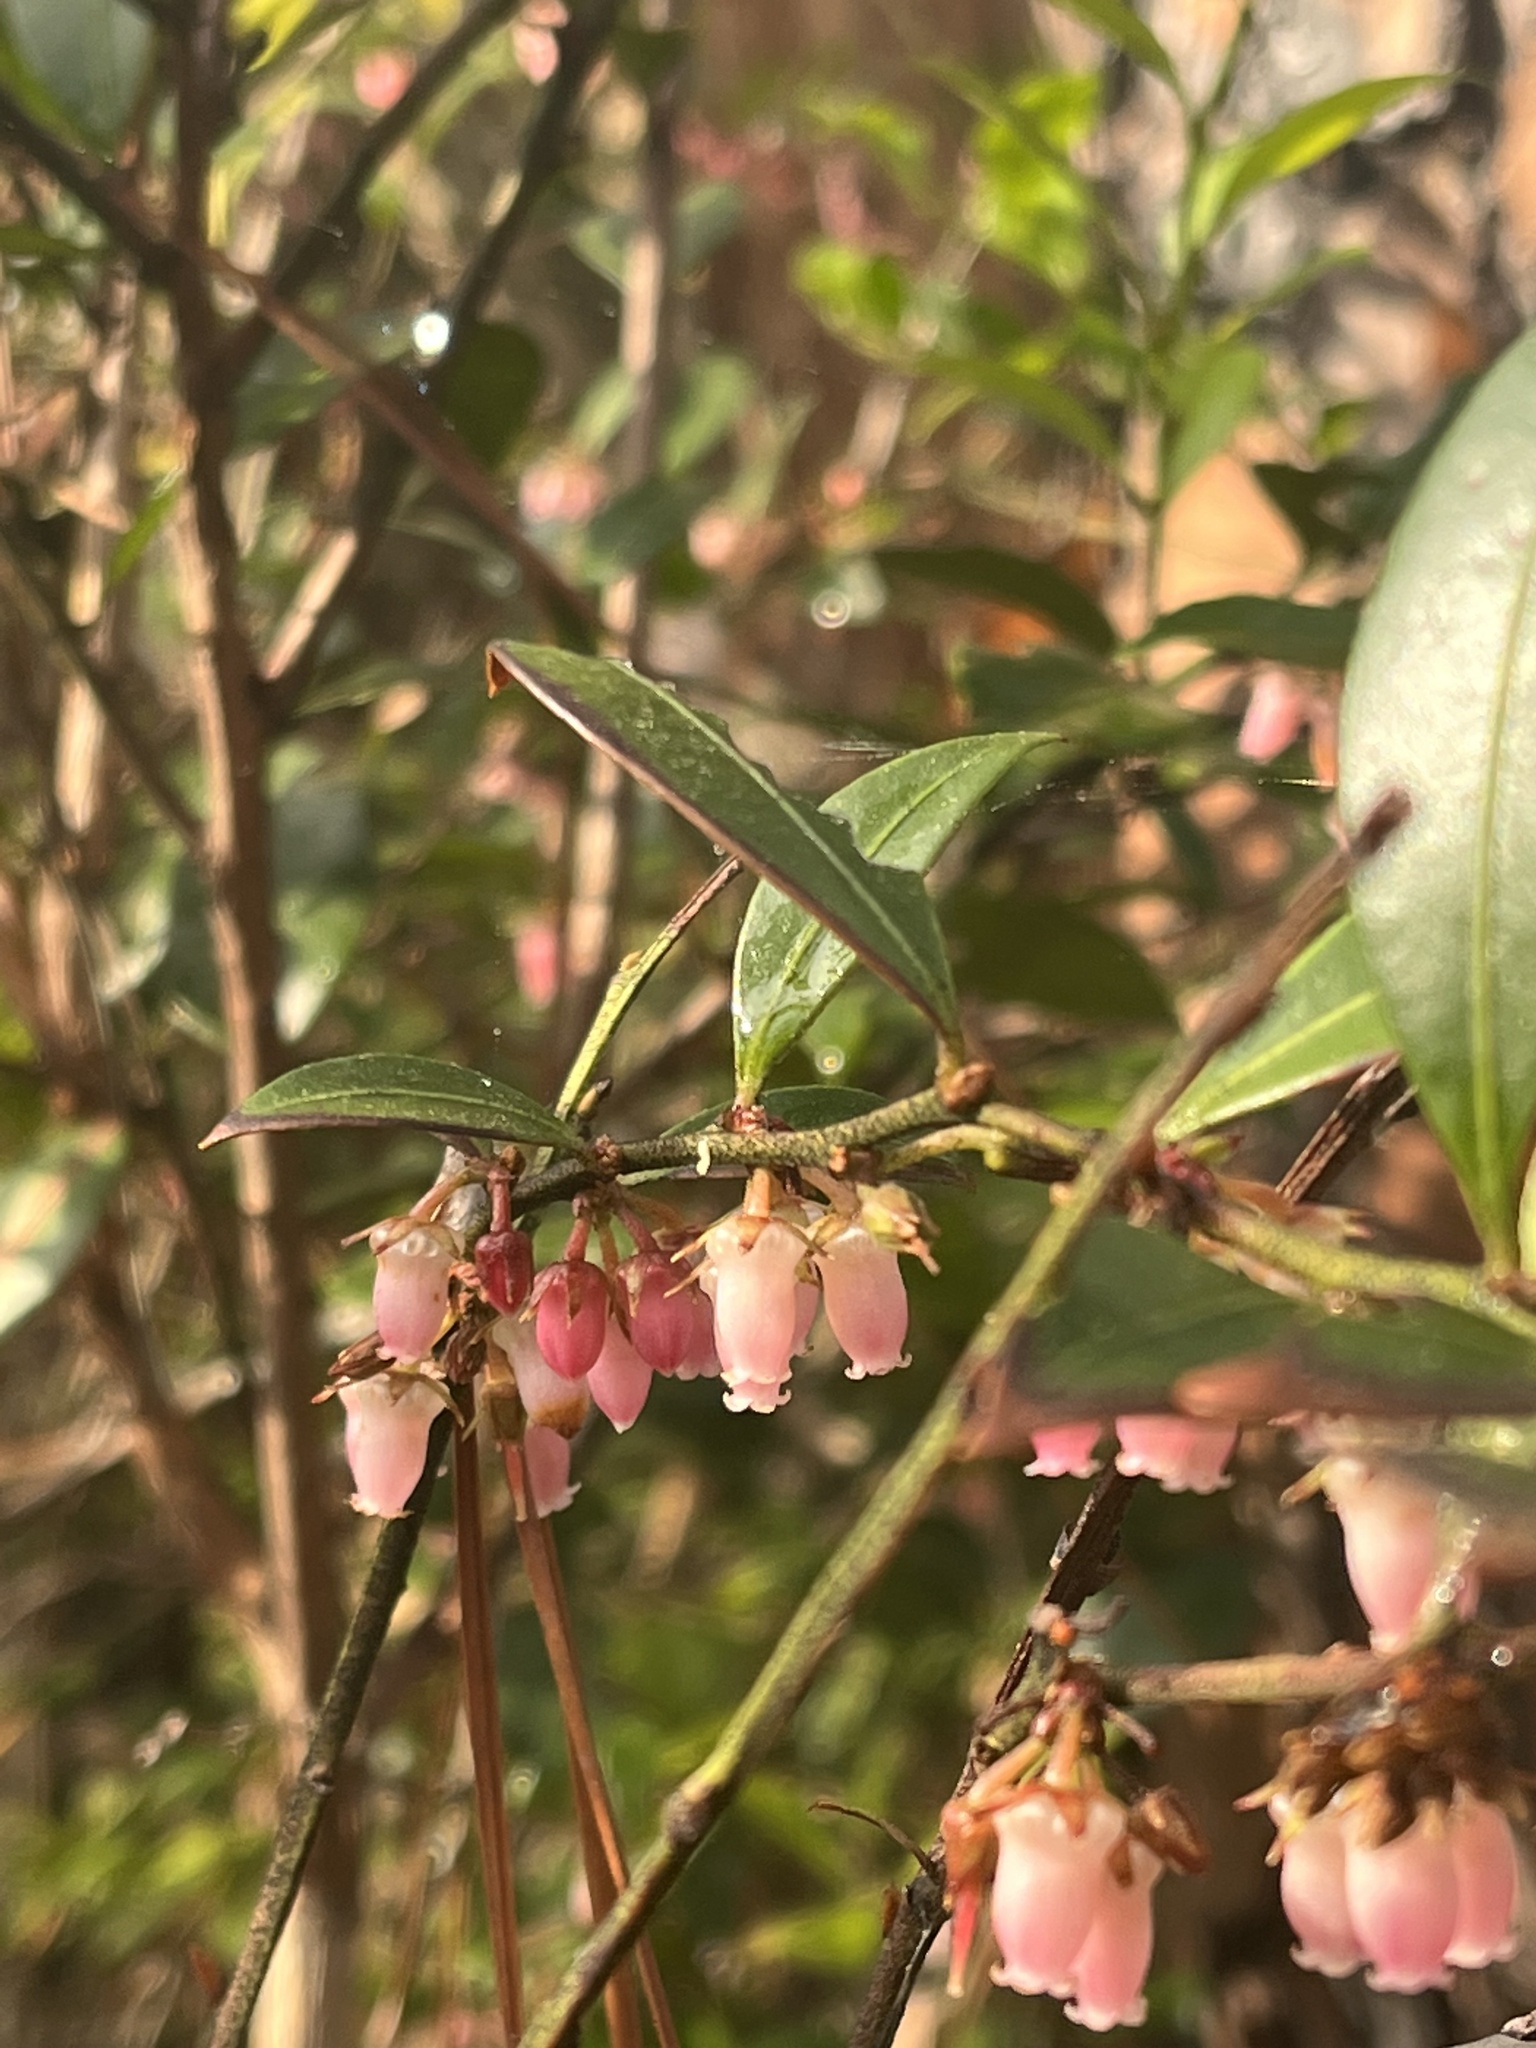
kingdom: Plantae
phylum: Tracheophyta
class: Magnoliopsida
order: Ericales
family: Ericaceae
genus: Lyonia
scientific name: Lyonia lucida
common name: Fetterbush
